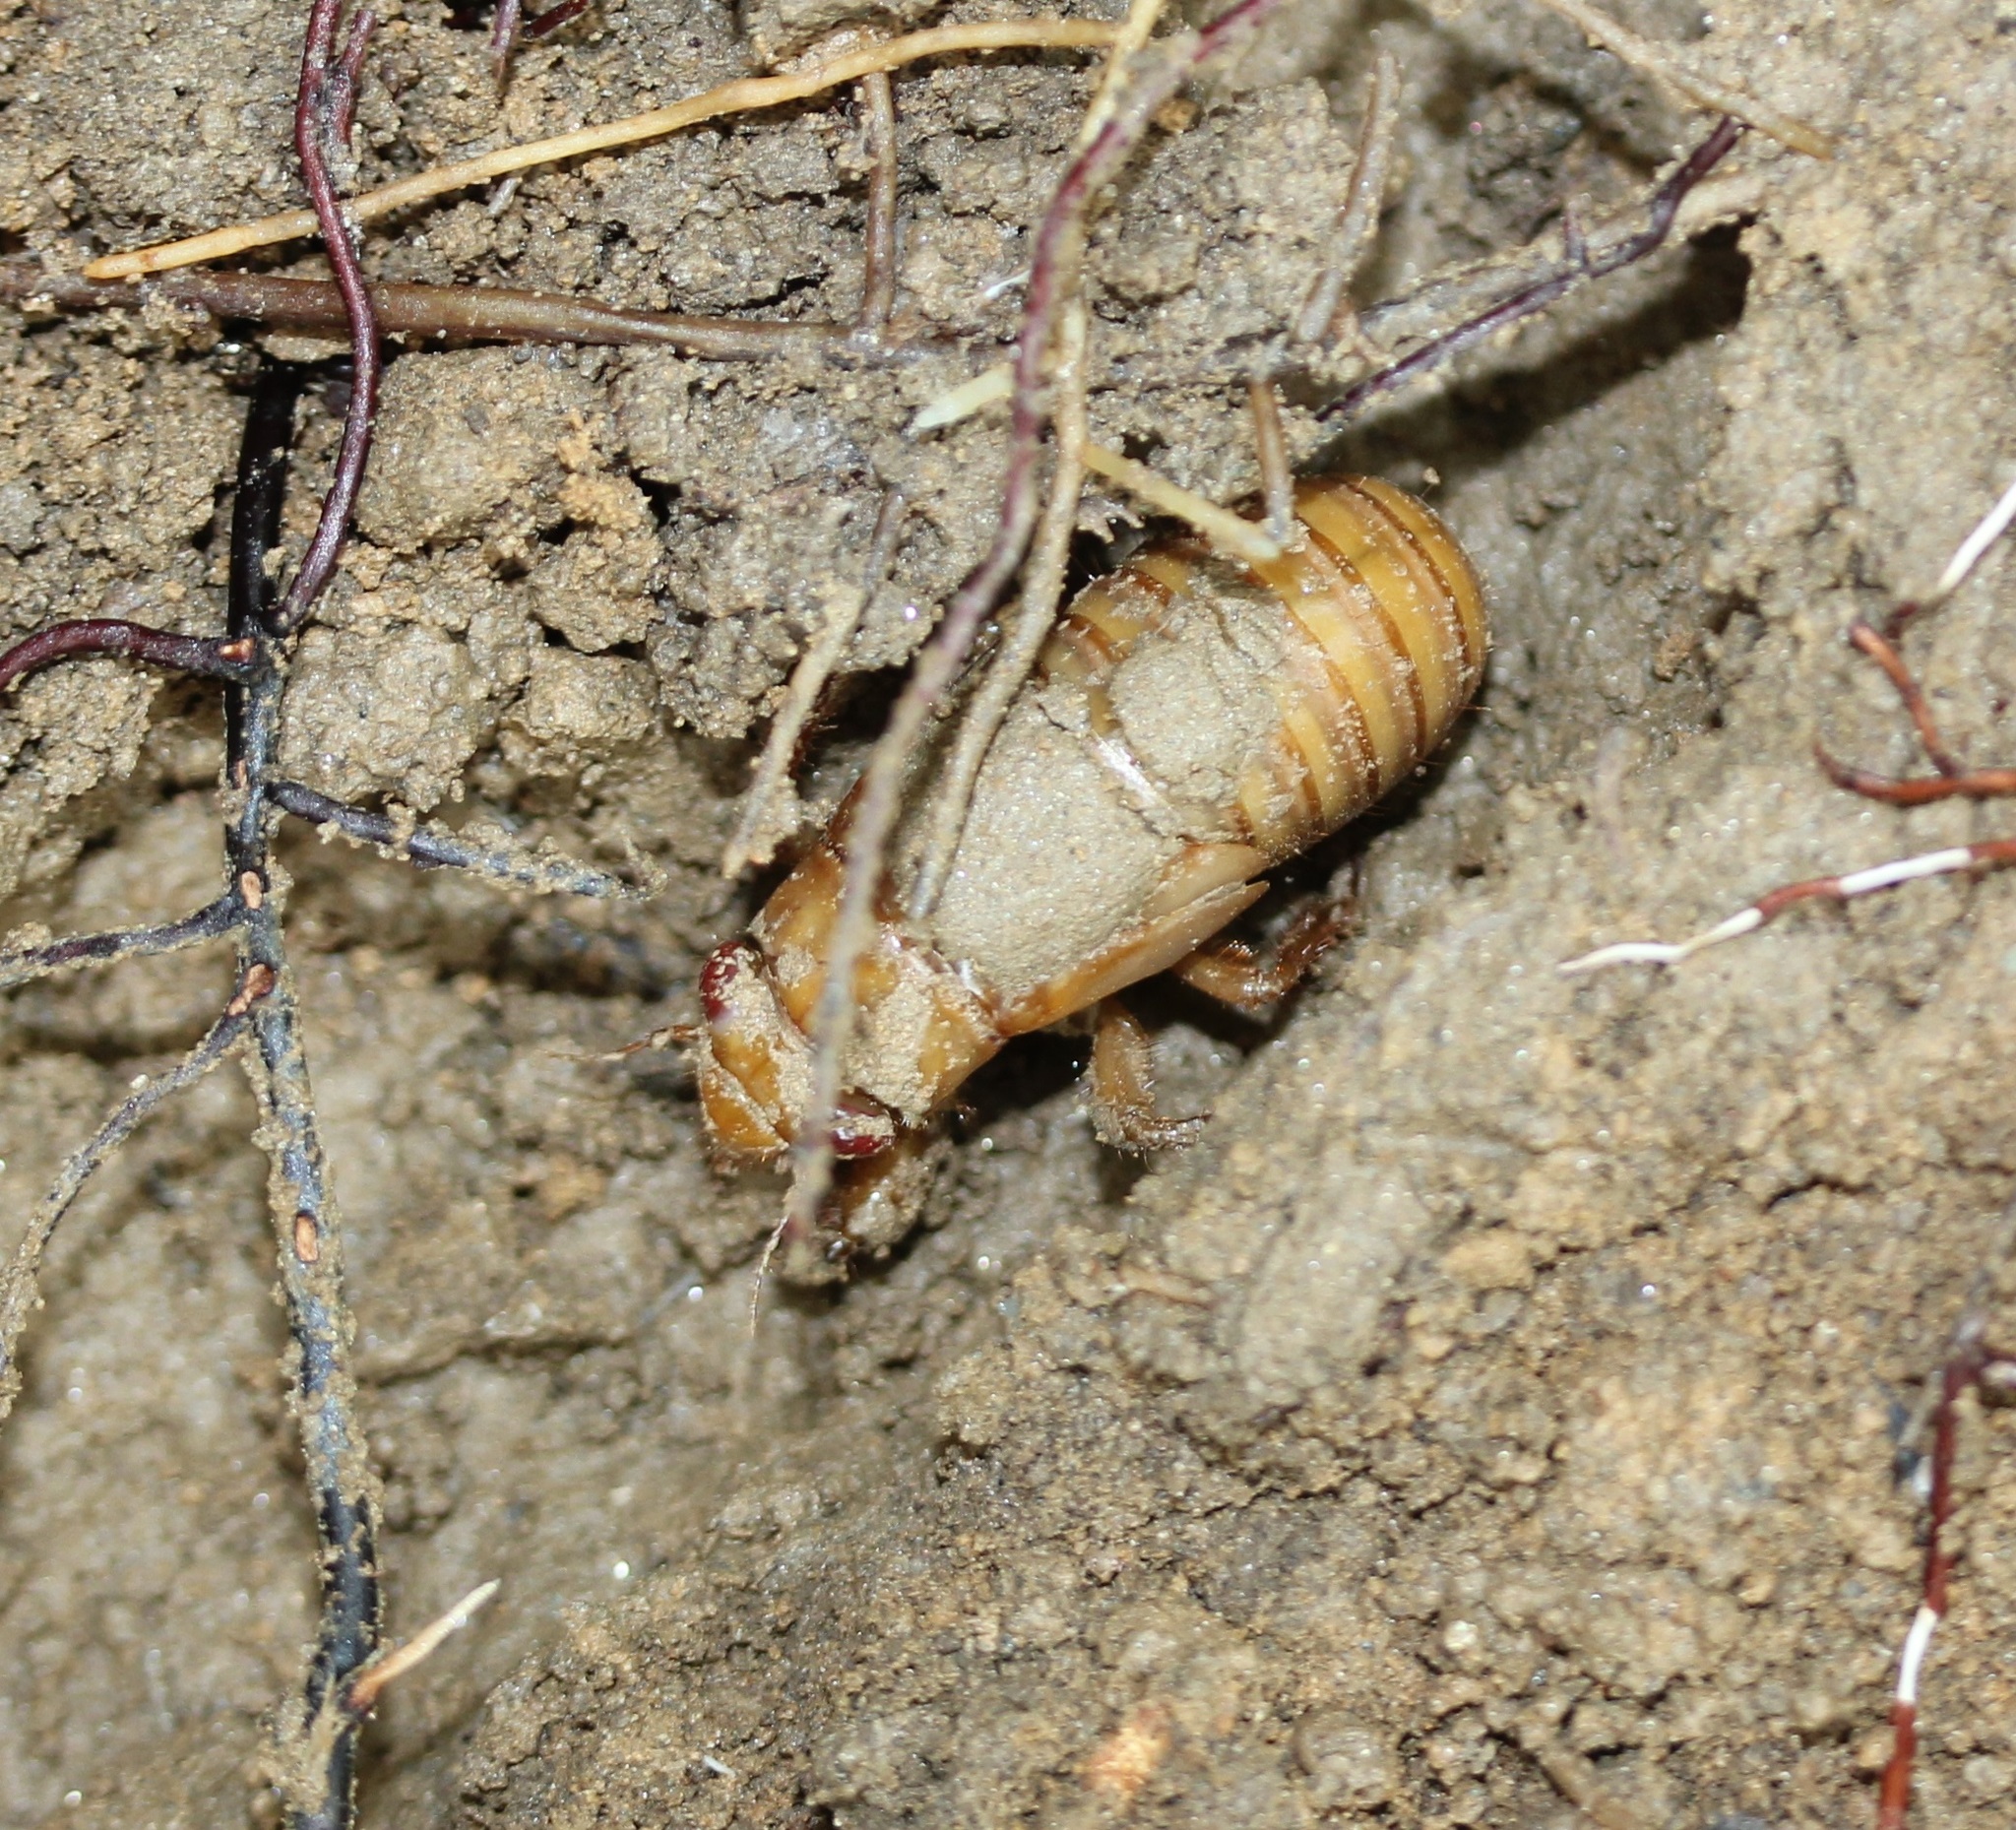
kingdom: Animalia
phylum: Arthropoda
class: Insecta
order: Hemiptera
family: Cicadidae
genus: Magicicada
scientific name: Magicicada
